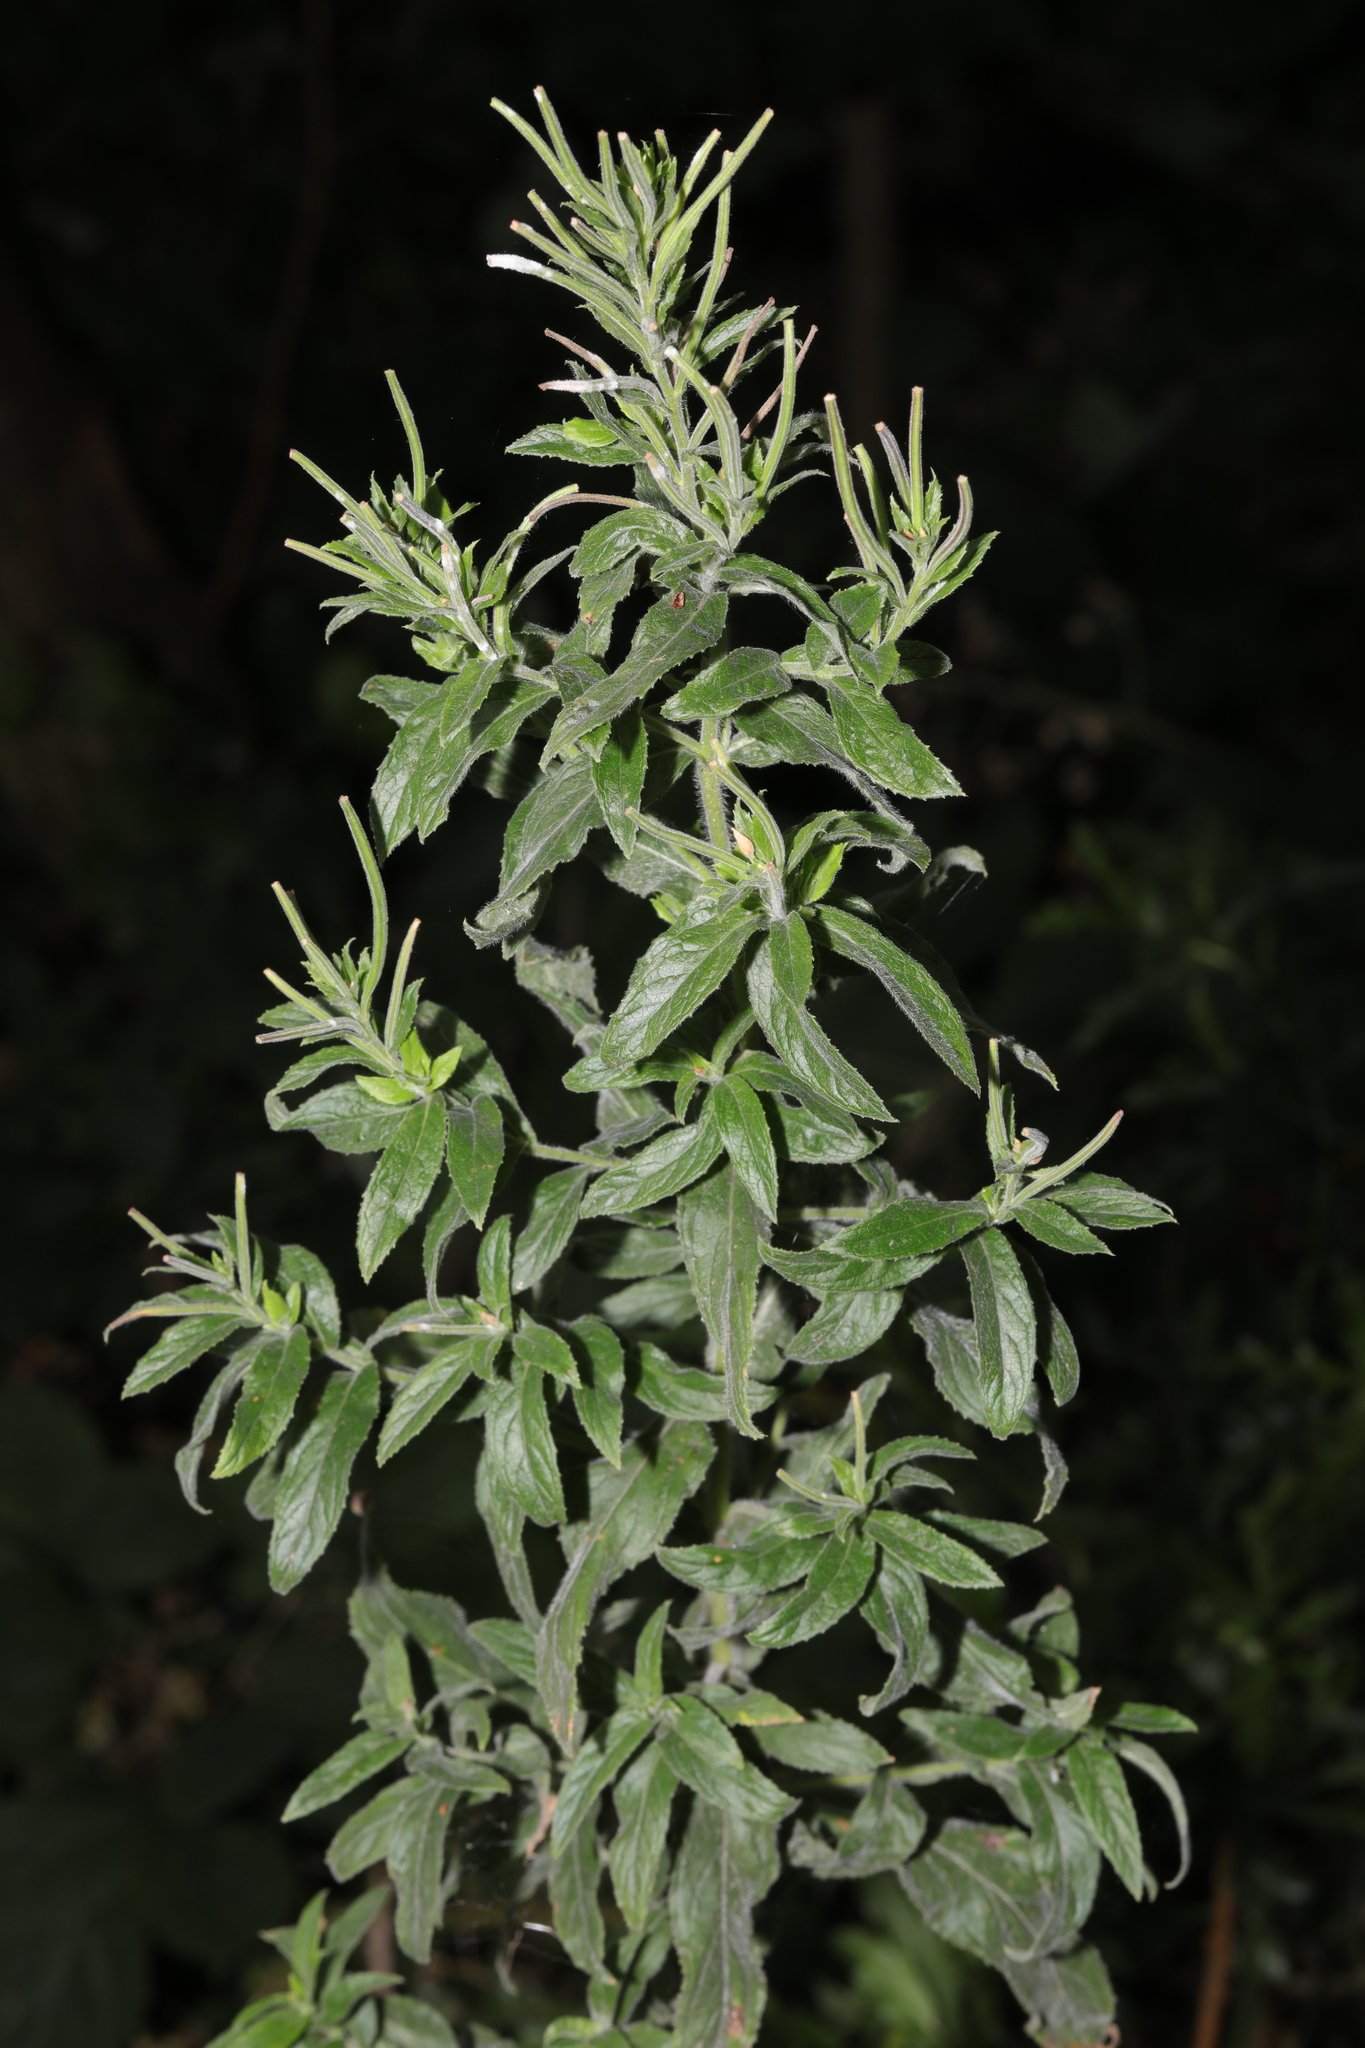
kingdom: Plantae
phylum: Tracheophyta
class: Magnoliopsida
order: Myrtales
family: Onagraceae
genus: Epilobium
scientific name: Epilobium hirsutum
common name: Great willowherb
